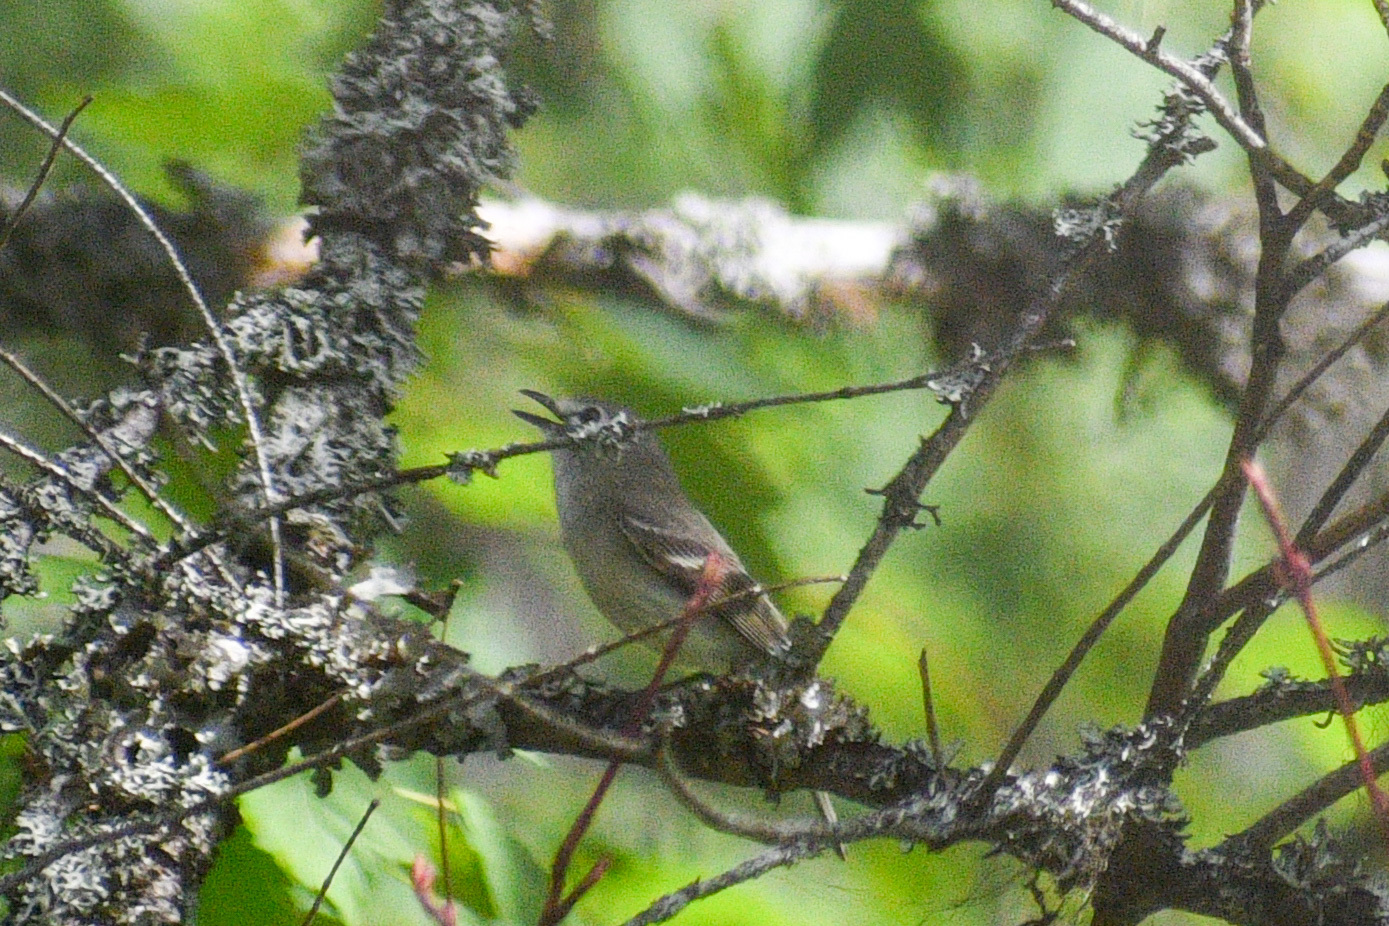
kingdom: Animalia
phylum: Chordata
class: Aves
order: Passeriformes
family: Vireonidae
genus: Vireo
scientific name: Vireo cassinii
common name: Cassin's vireo
